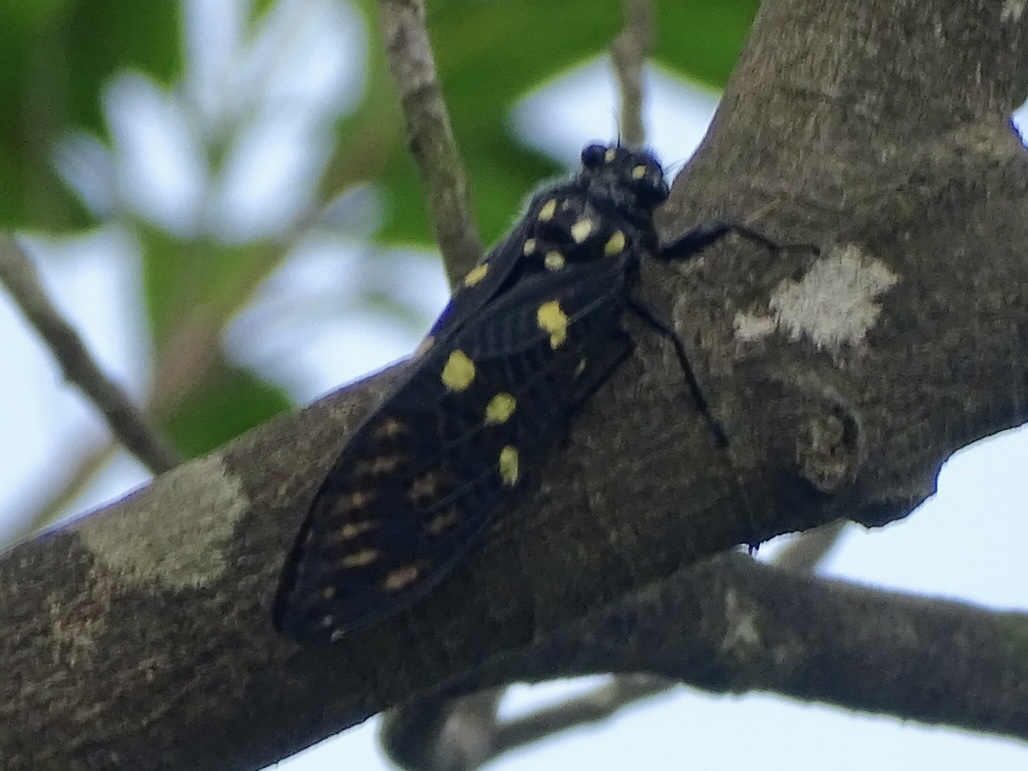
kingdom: Animalia
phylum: Arthropoda
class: Insecta
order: Hemiptera
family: Cicadidae
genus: Gaeana
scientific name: Gaeana maculata
